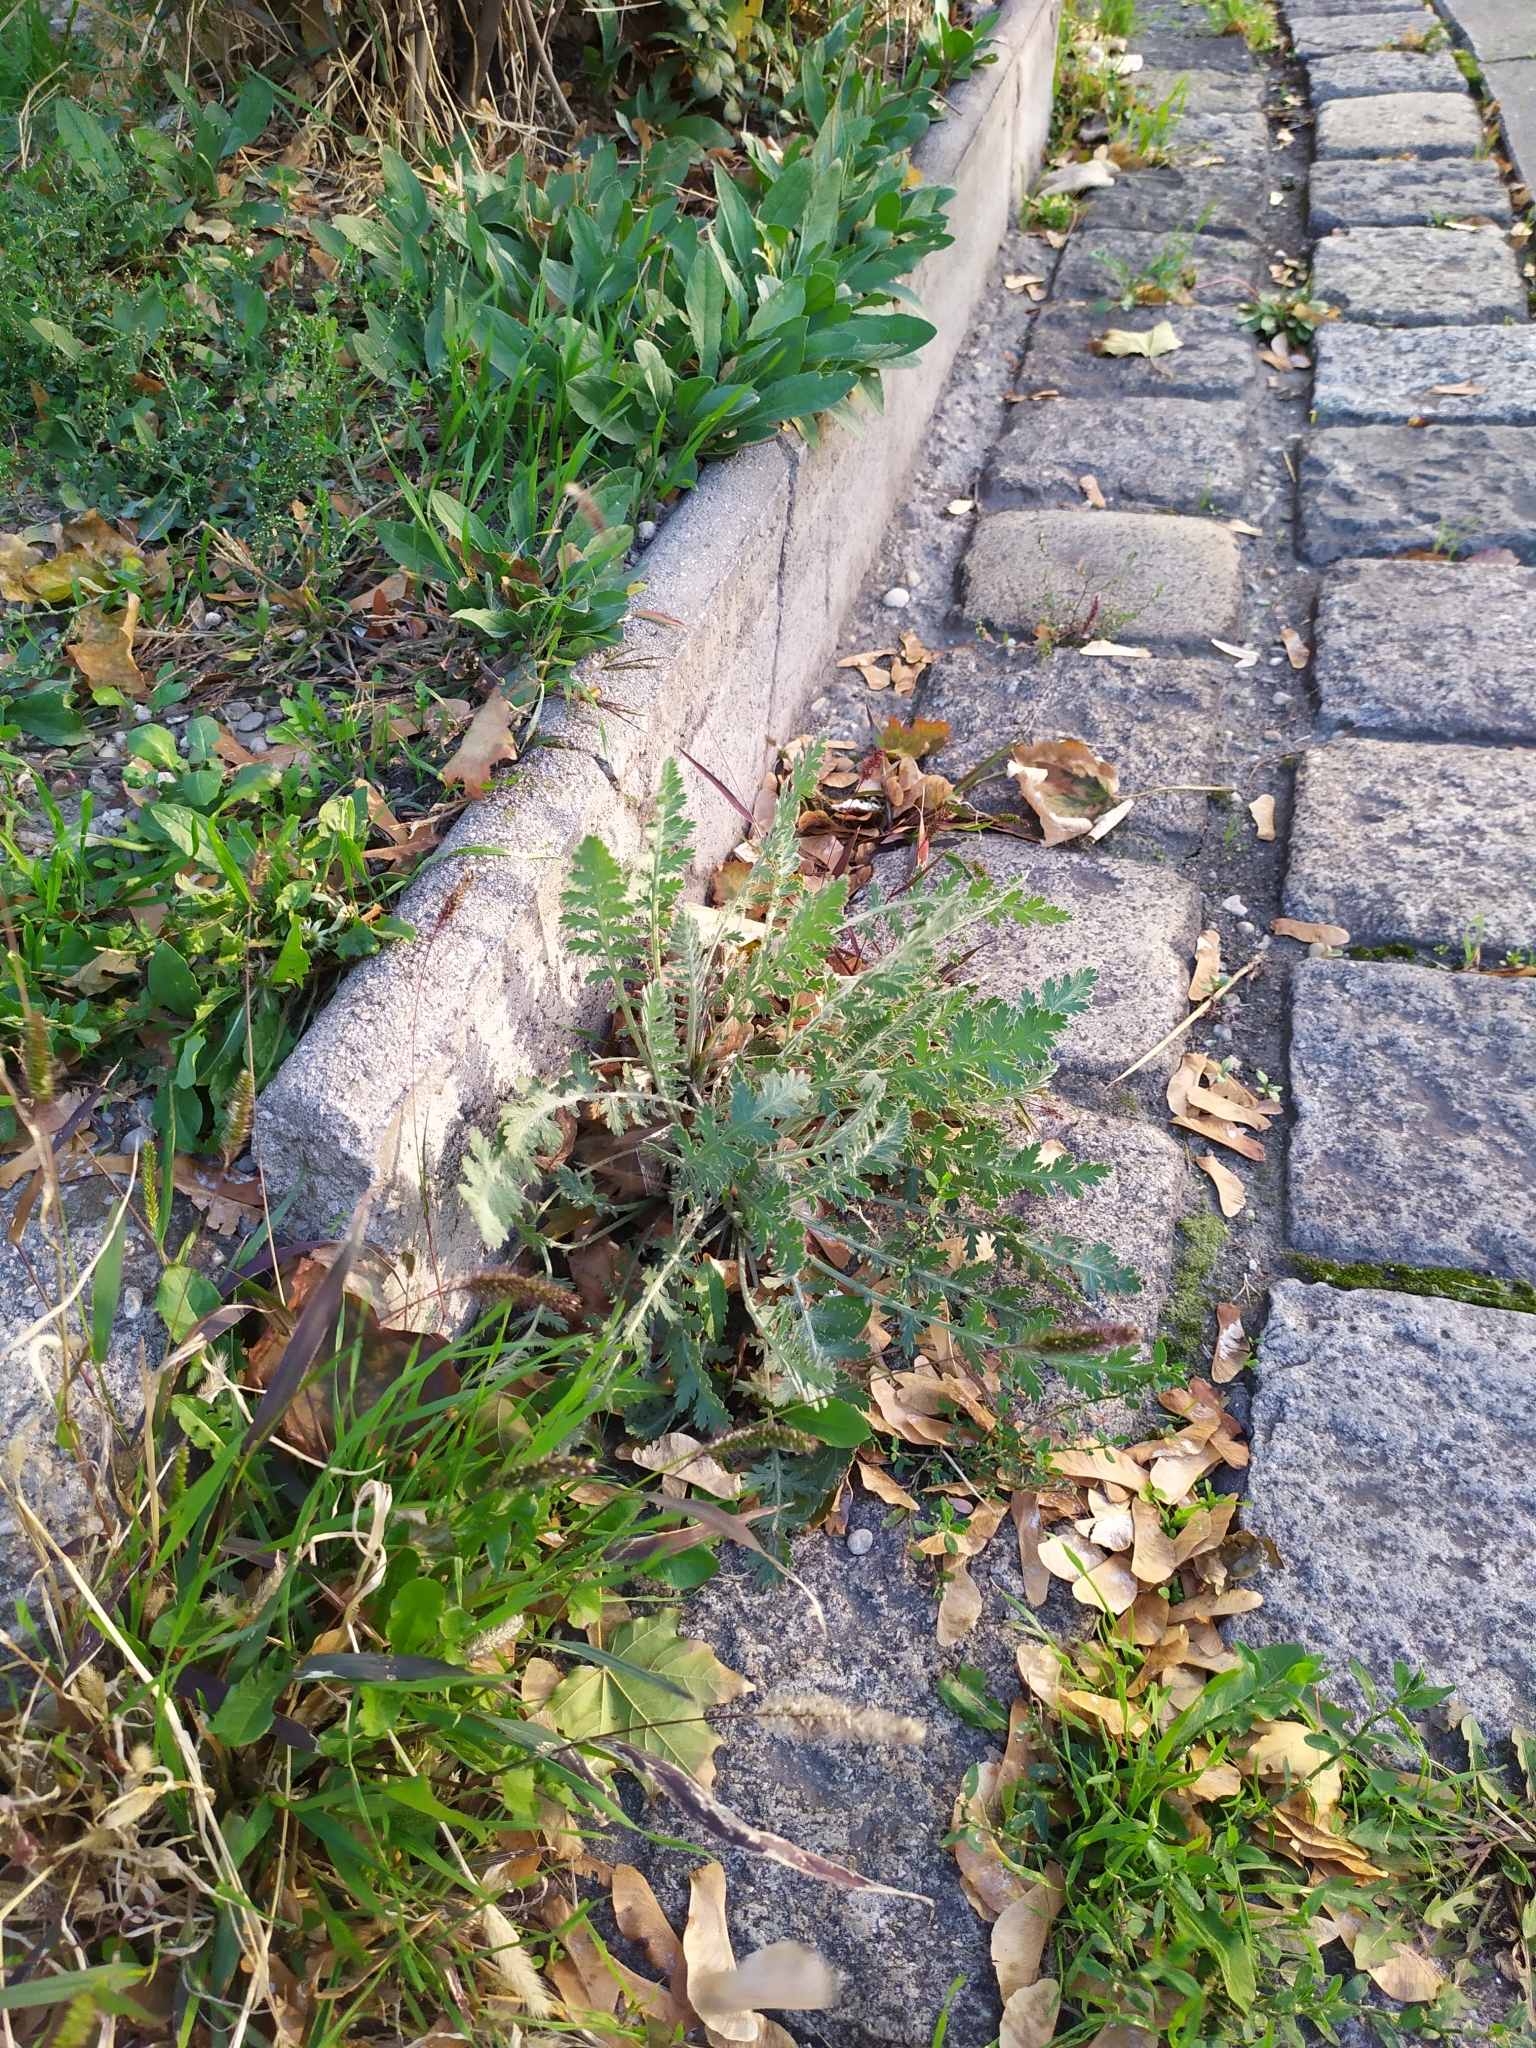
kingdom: Plantae
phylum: Tracheophyta
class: Magnoliopsida
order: Asterales
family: Asteraceae
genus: Achillea
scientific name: Achillea filipendulina
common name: Fernleaf yarrow
